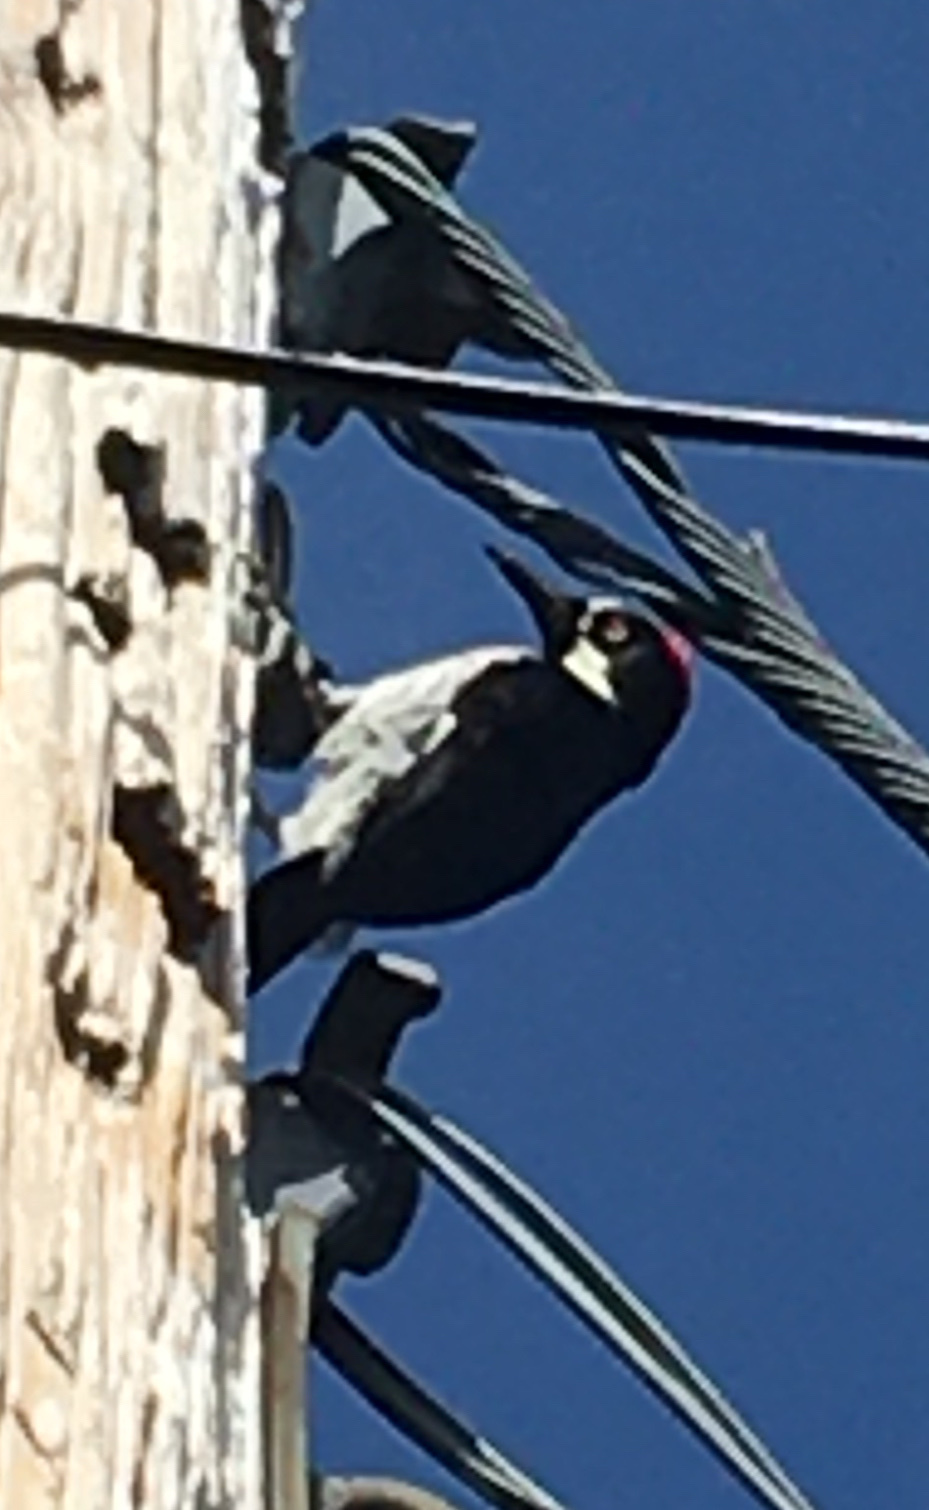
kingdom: Animalia
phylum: Chordata
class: Aves
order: Piciformes
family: Picidae
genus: Melanerpes
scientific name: Melanerpes formicivorus
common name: Acorn woodpecker
